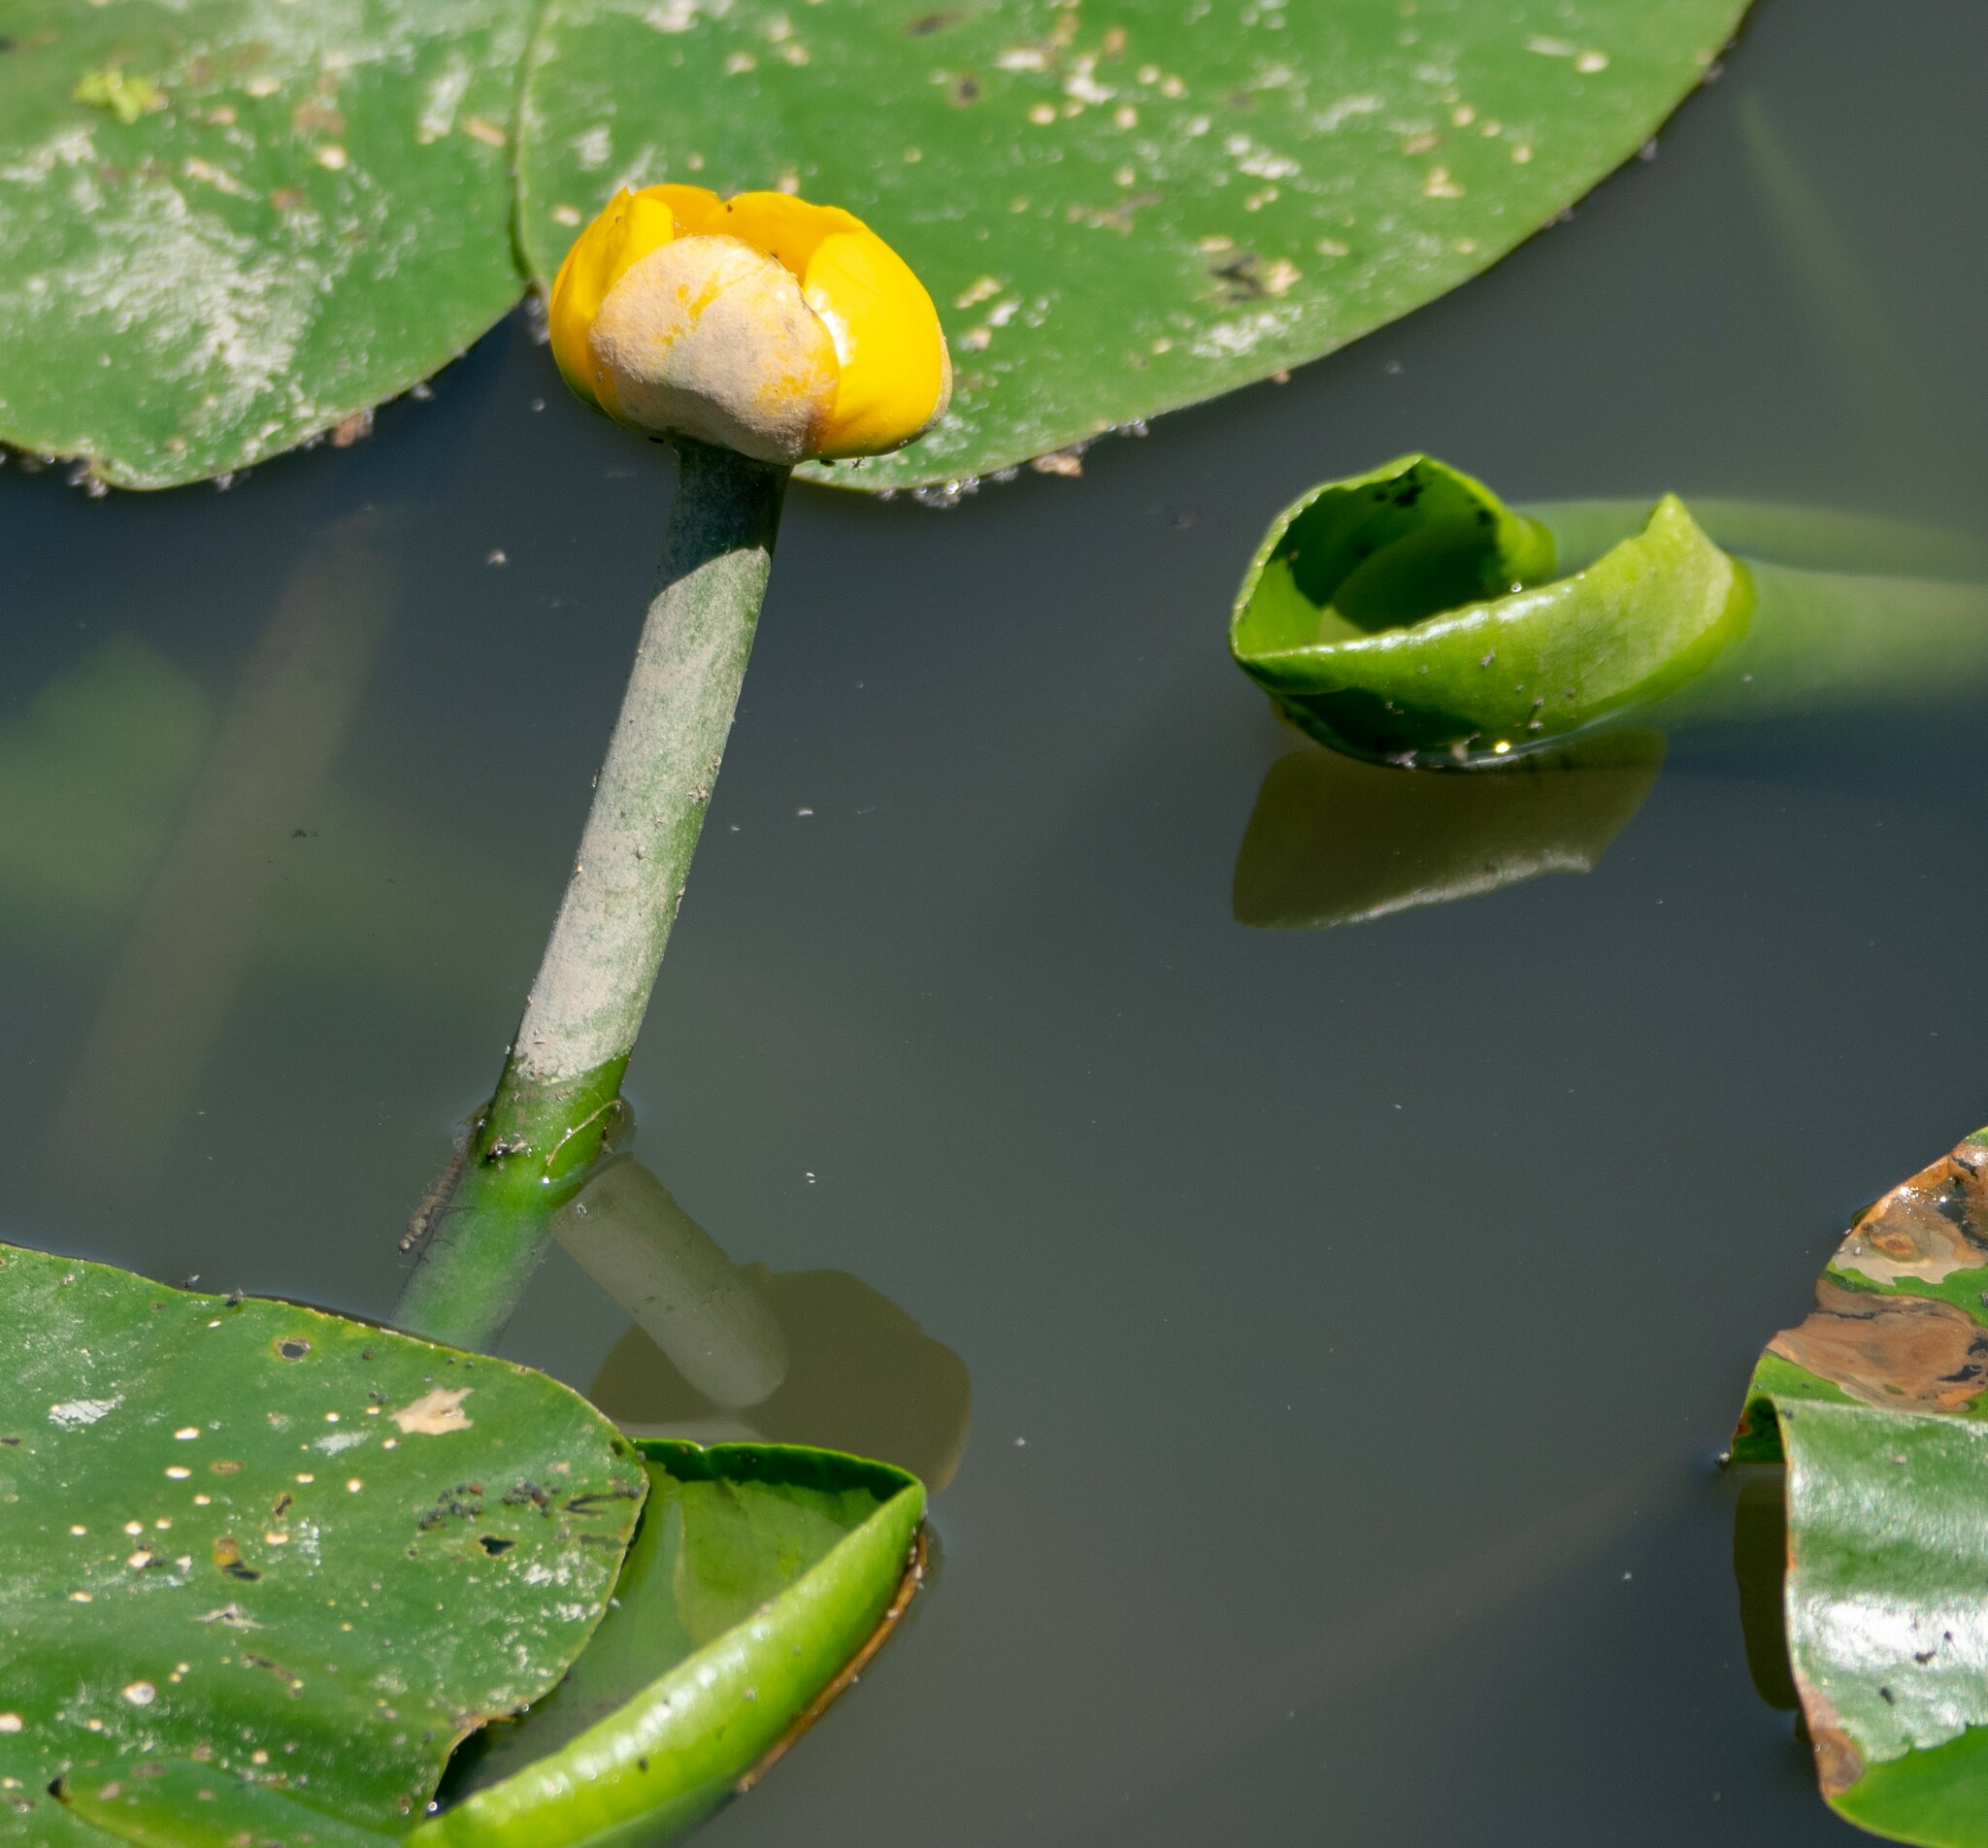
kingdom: Plantae
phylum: Tracheophyta
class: Magnoliopsida
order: Nymphaeales
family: Nymphaeaceae
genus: Nuphar
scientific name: Nuphar lutea
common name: Yellow water-lily
